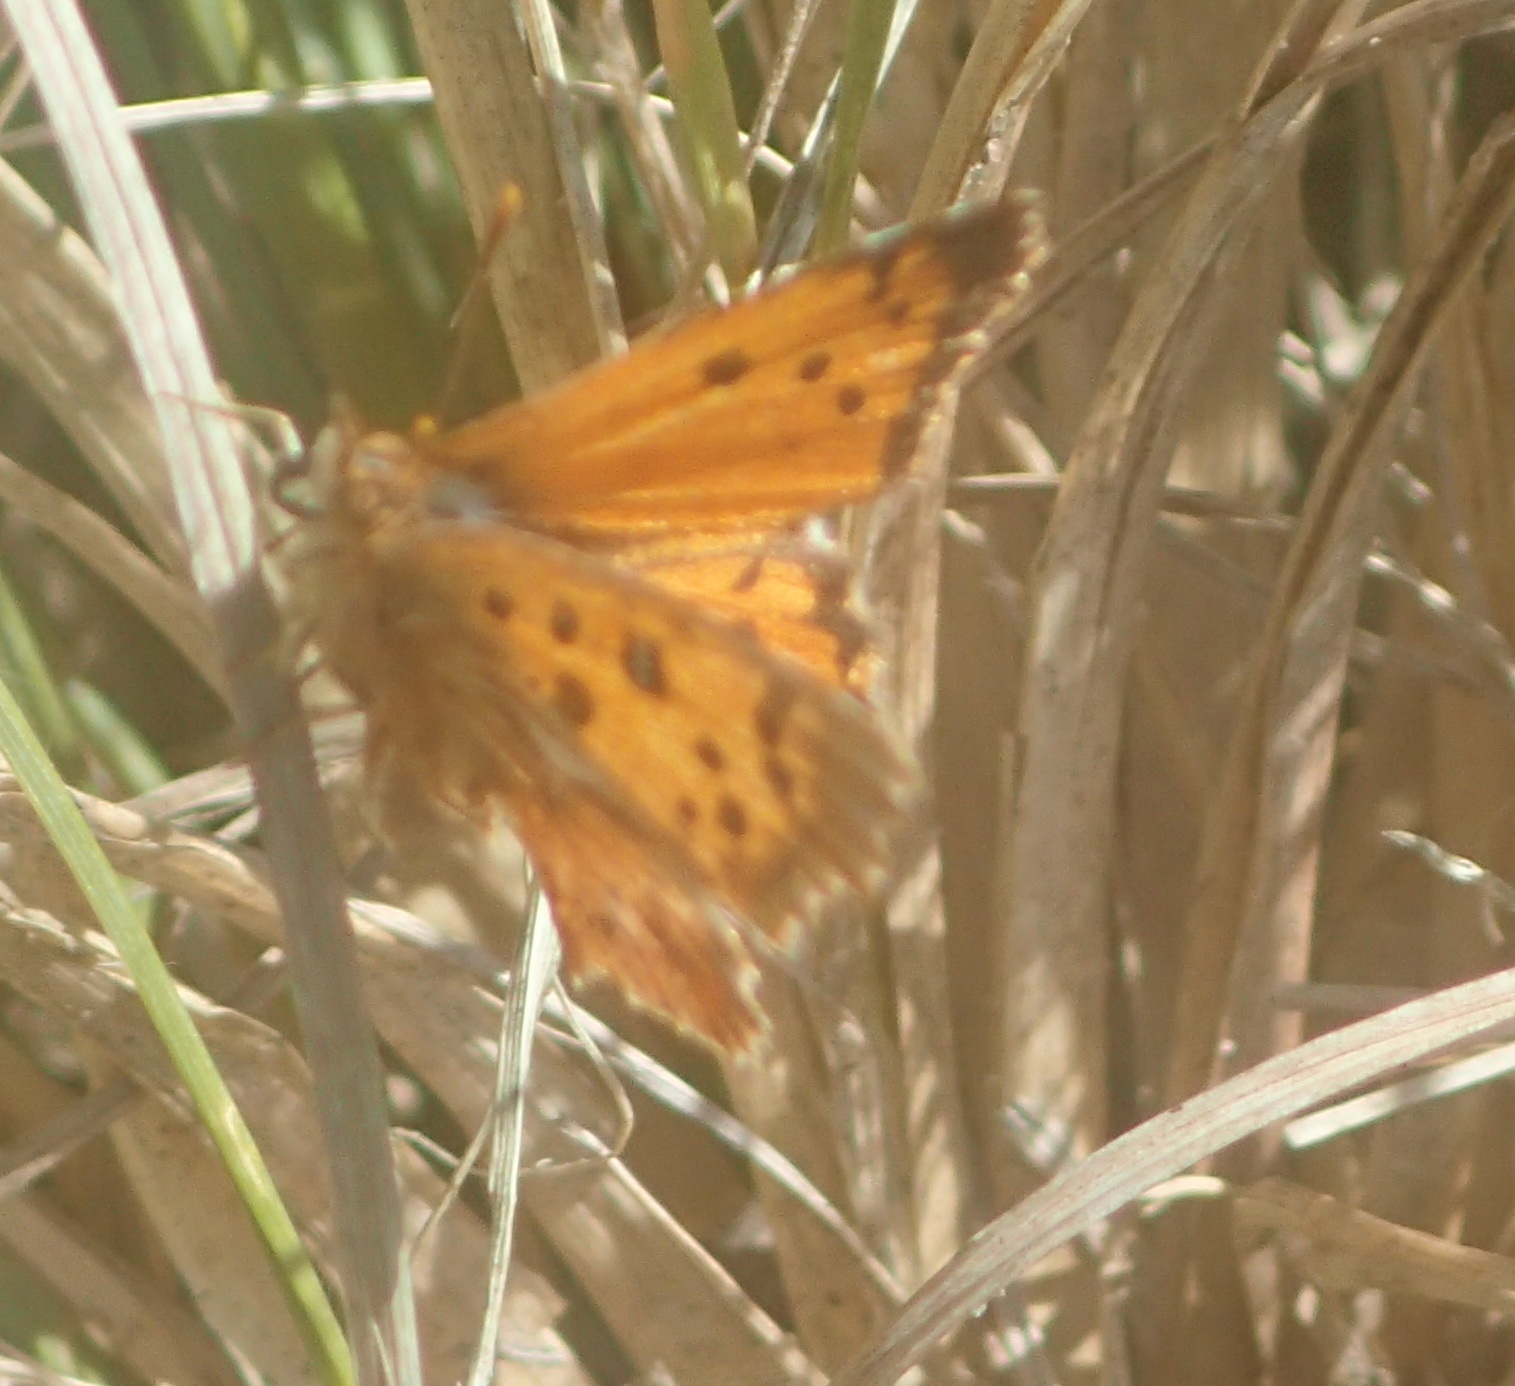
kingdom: Animalia
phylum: Arthropoda
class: Insecta
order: Lepidoptera
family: Lycaenidae
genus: Chrysoritis
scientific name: Chrysoritis
